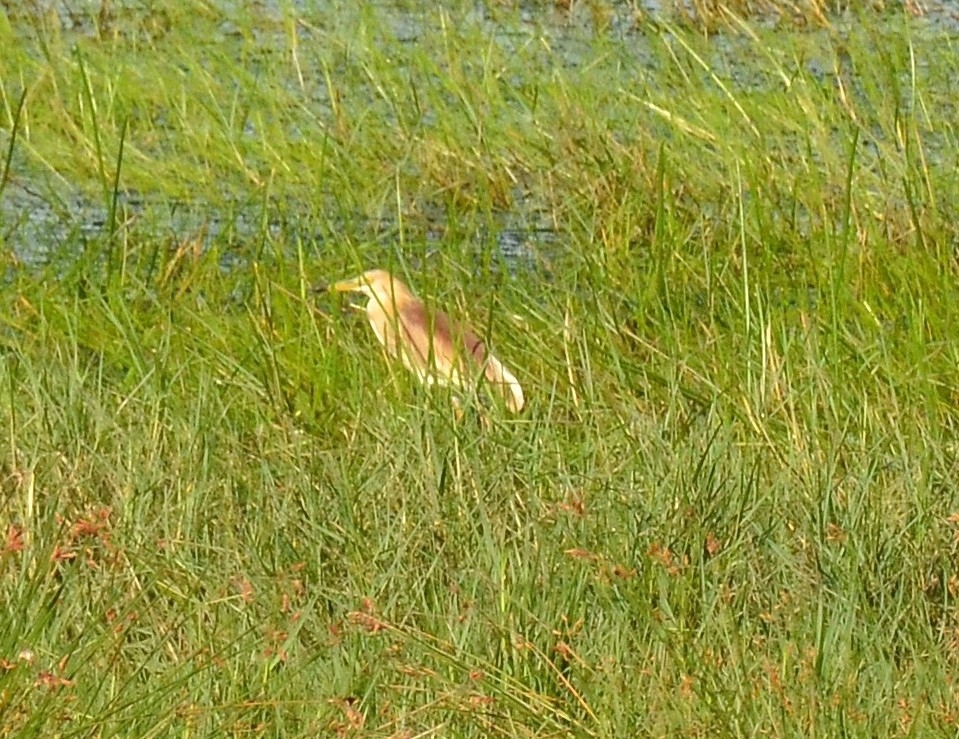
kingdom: Animalia
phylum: Chordata
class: Aves
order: Pelecaniformes
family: Ardeidae
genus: Ardeola
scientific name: Ardeola grayii
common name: Indian pond heron
